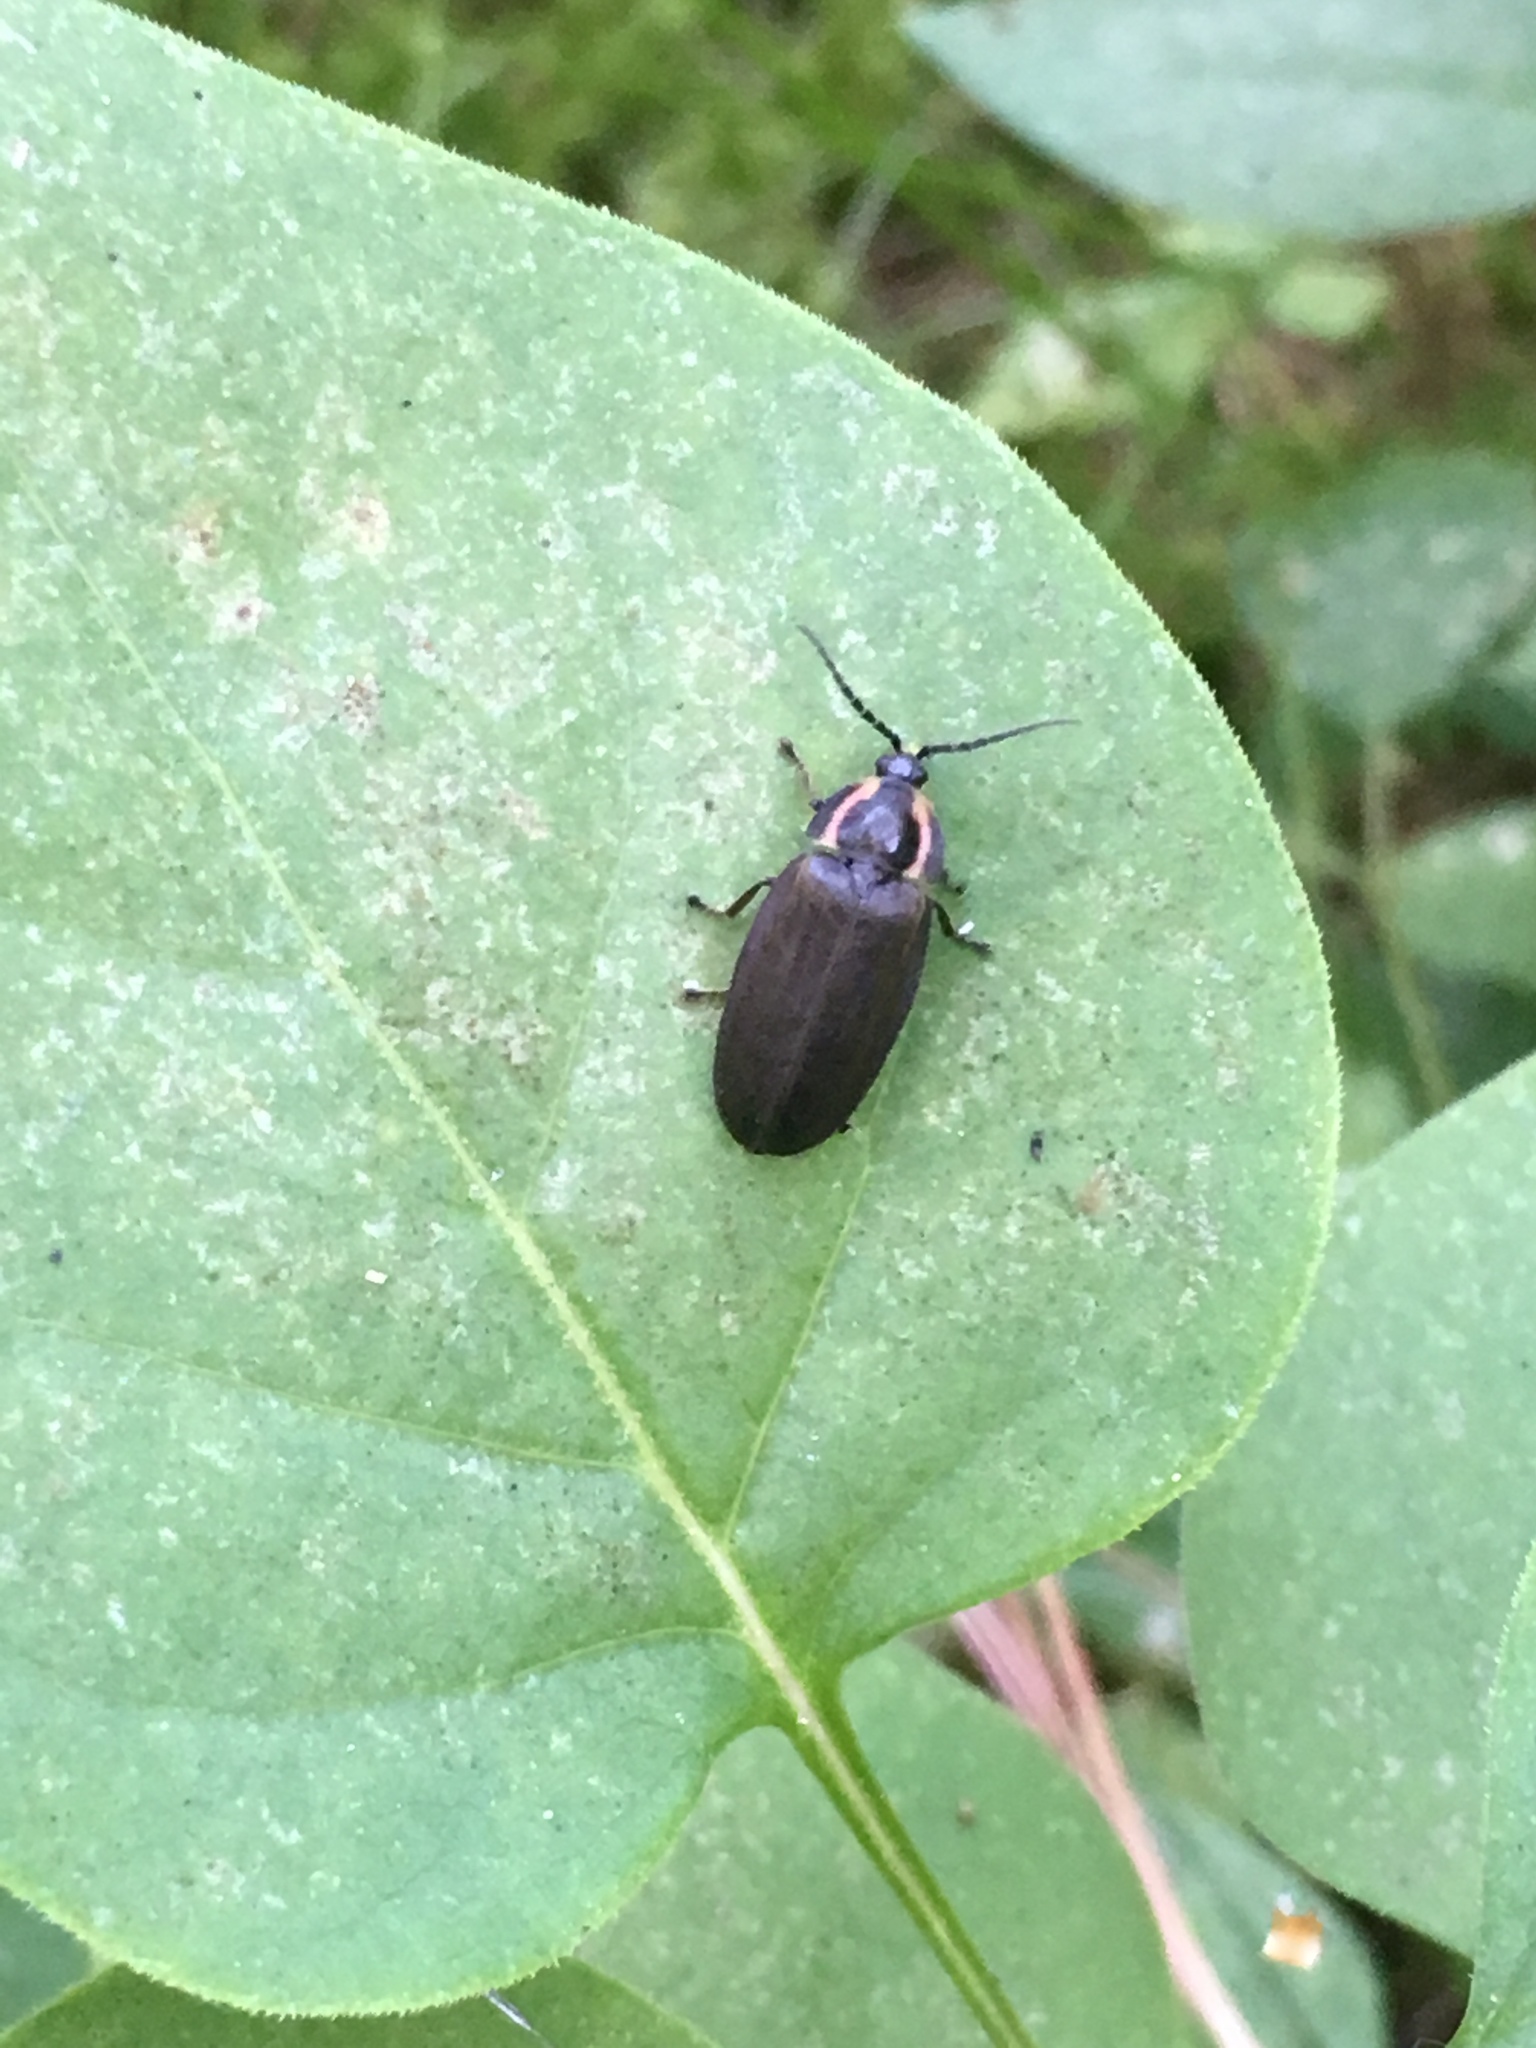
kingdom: Animalia
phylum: Arthropoda
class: Insecta
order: Coleoptera
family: Lampyridae
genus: Photinus
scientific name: Photinus corrusca
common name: Winter firefly
